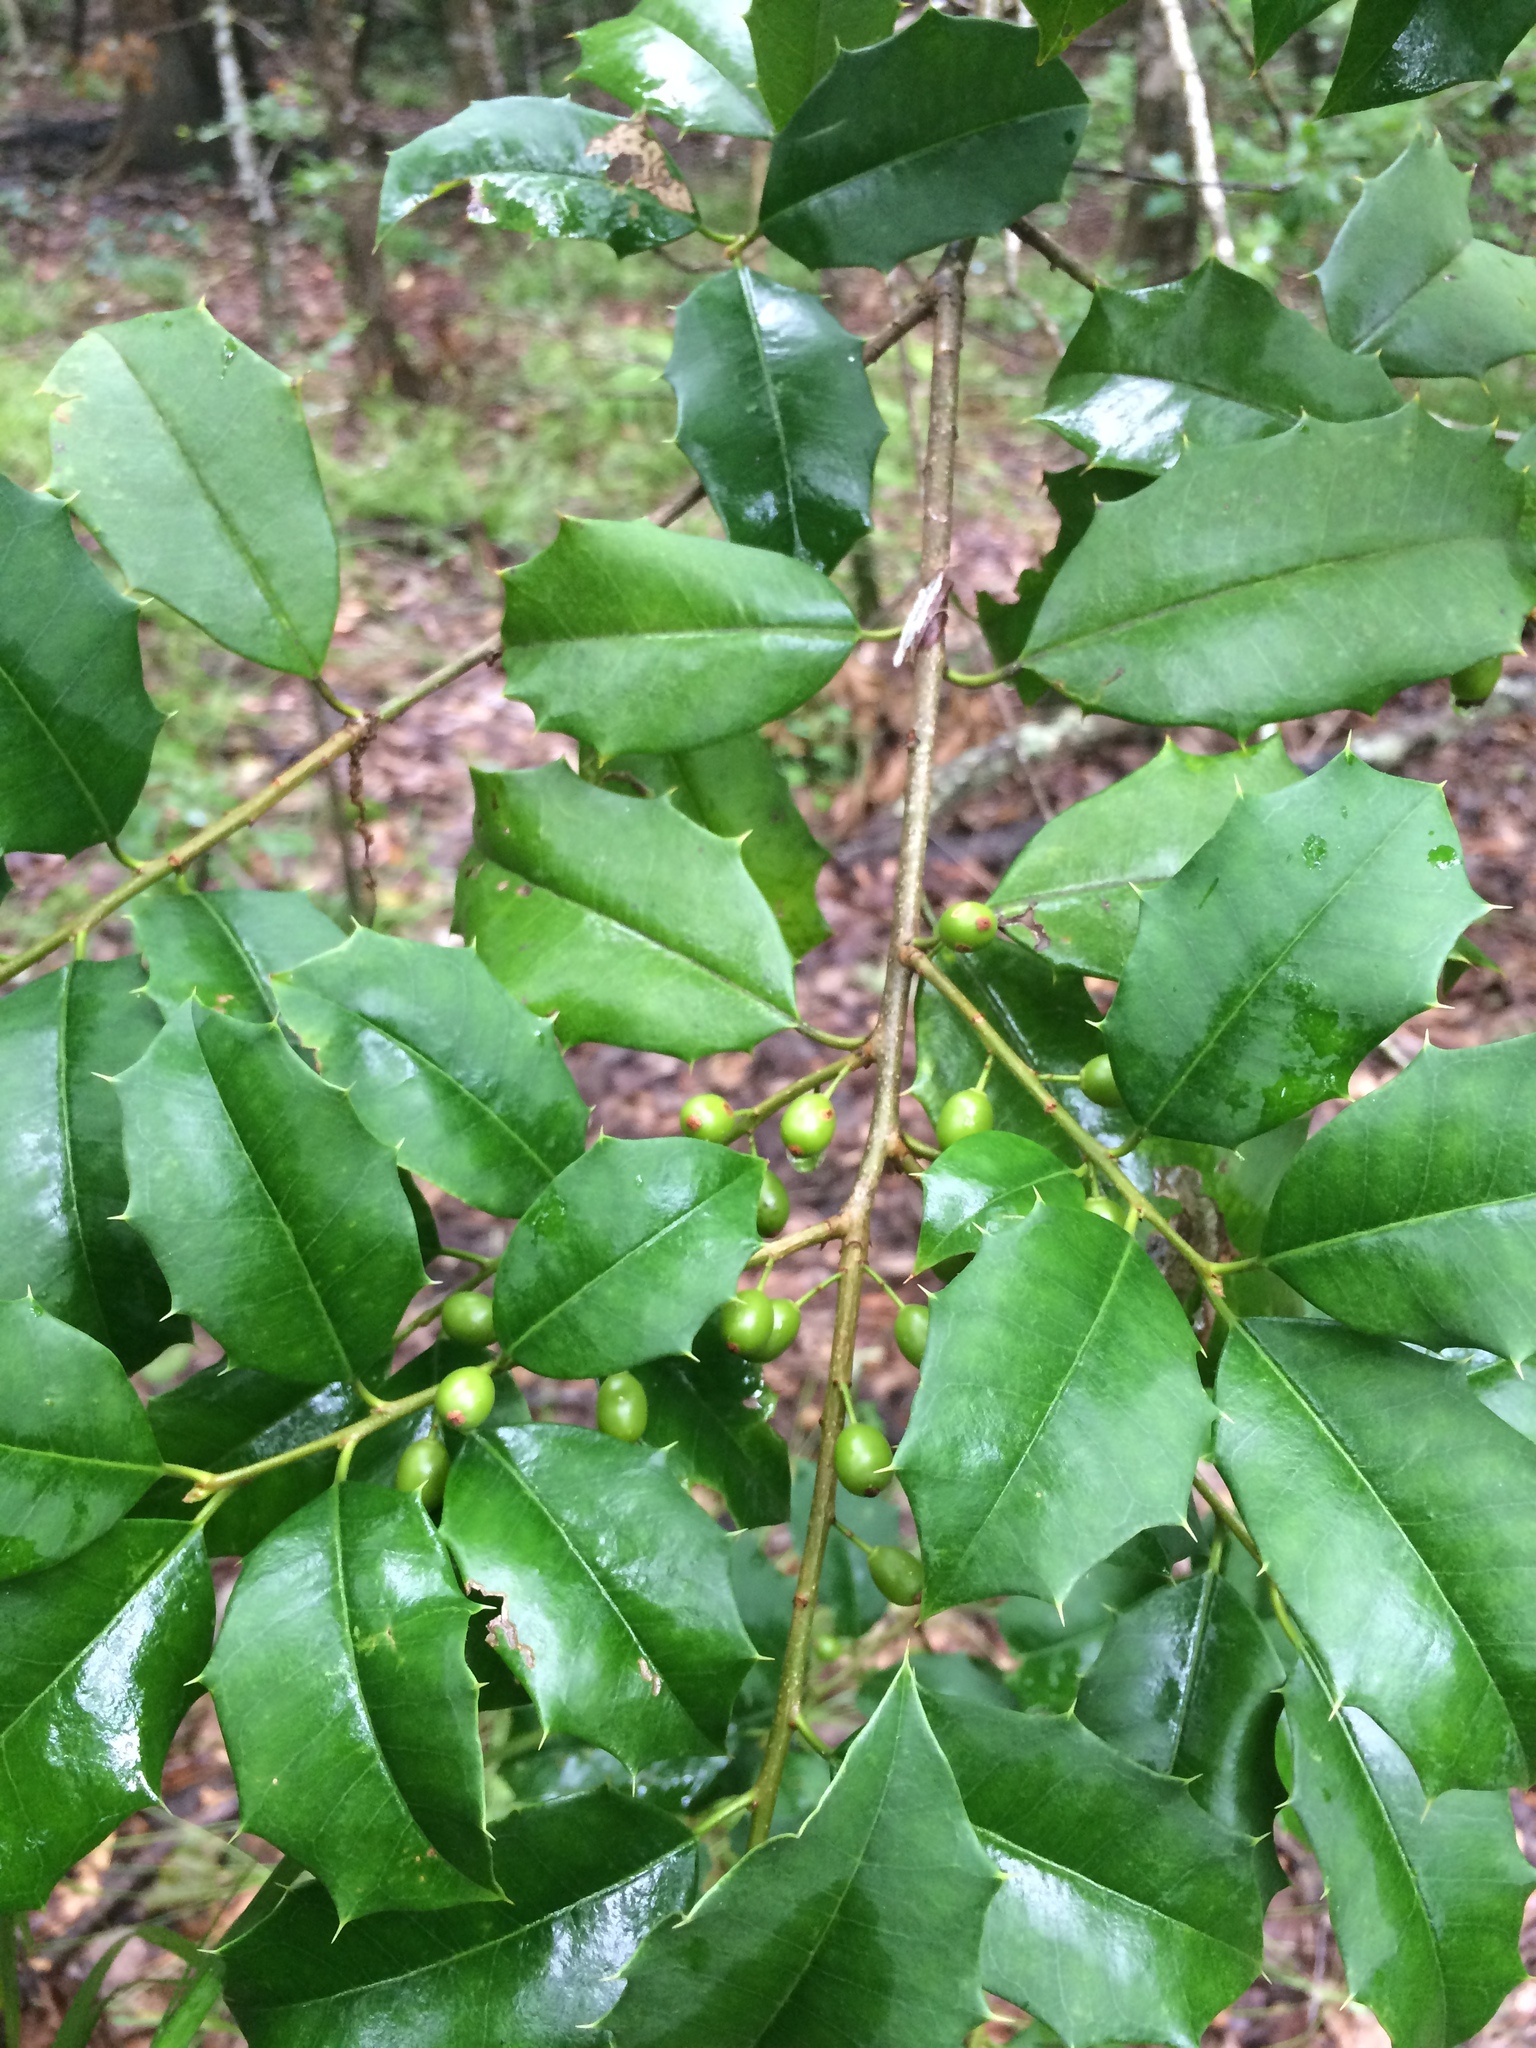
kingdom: Plantae
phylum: Tracheophyta
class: Magnoliopsida
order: Aquifoliales
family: Aquifoliaceae
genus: Ilex
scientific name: Ilex opaca
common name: American holly
